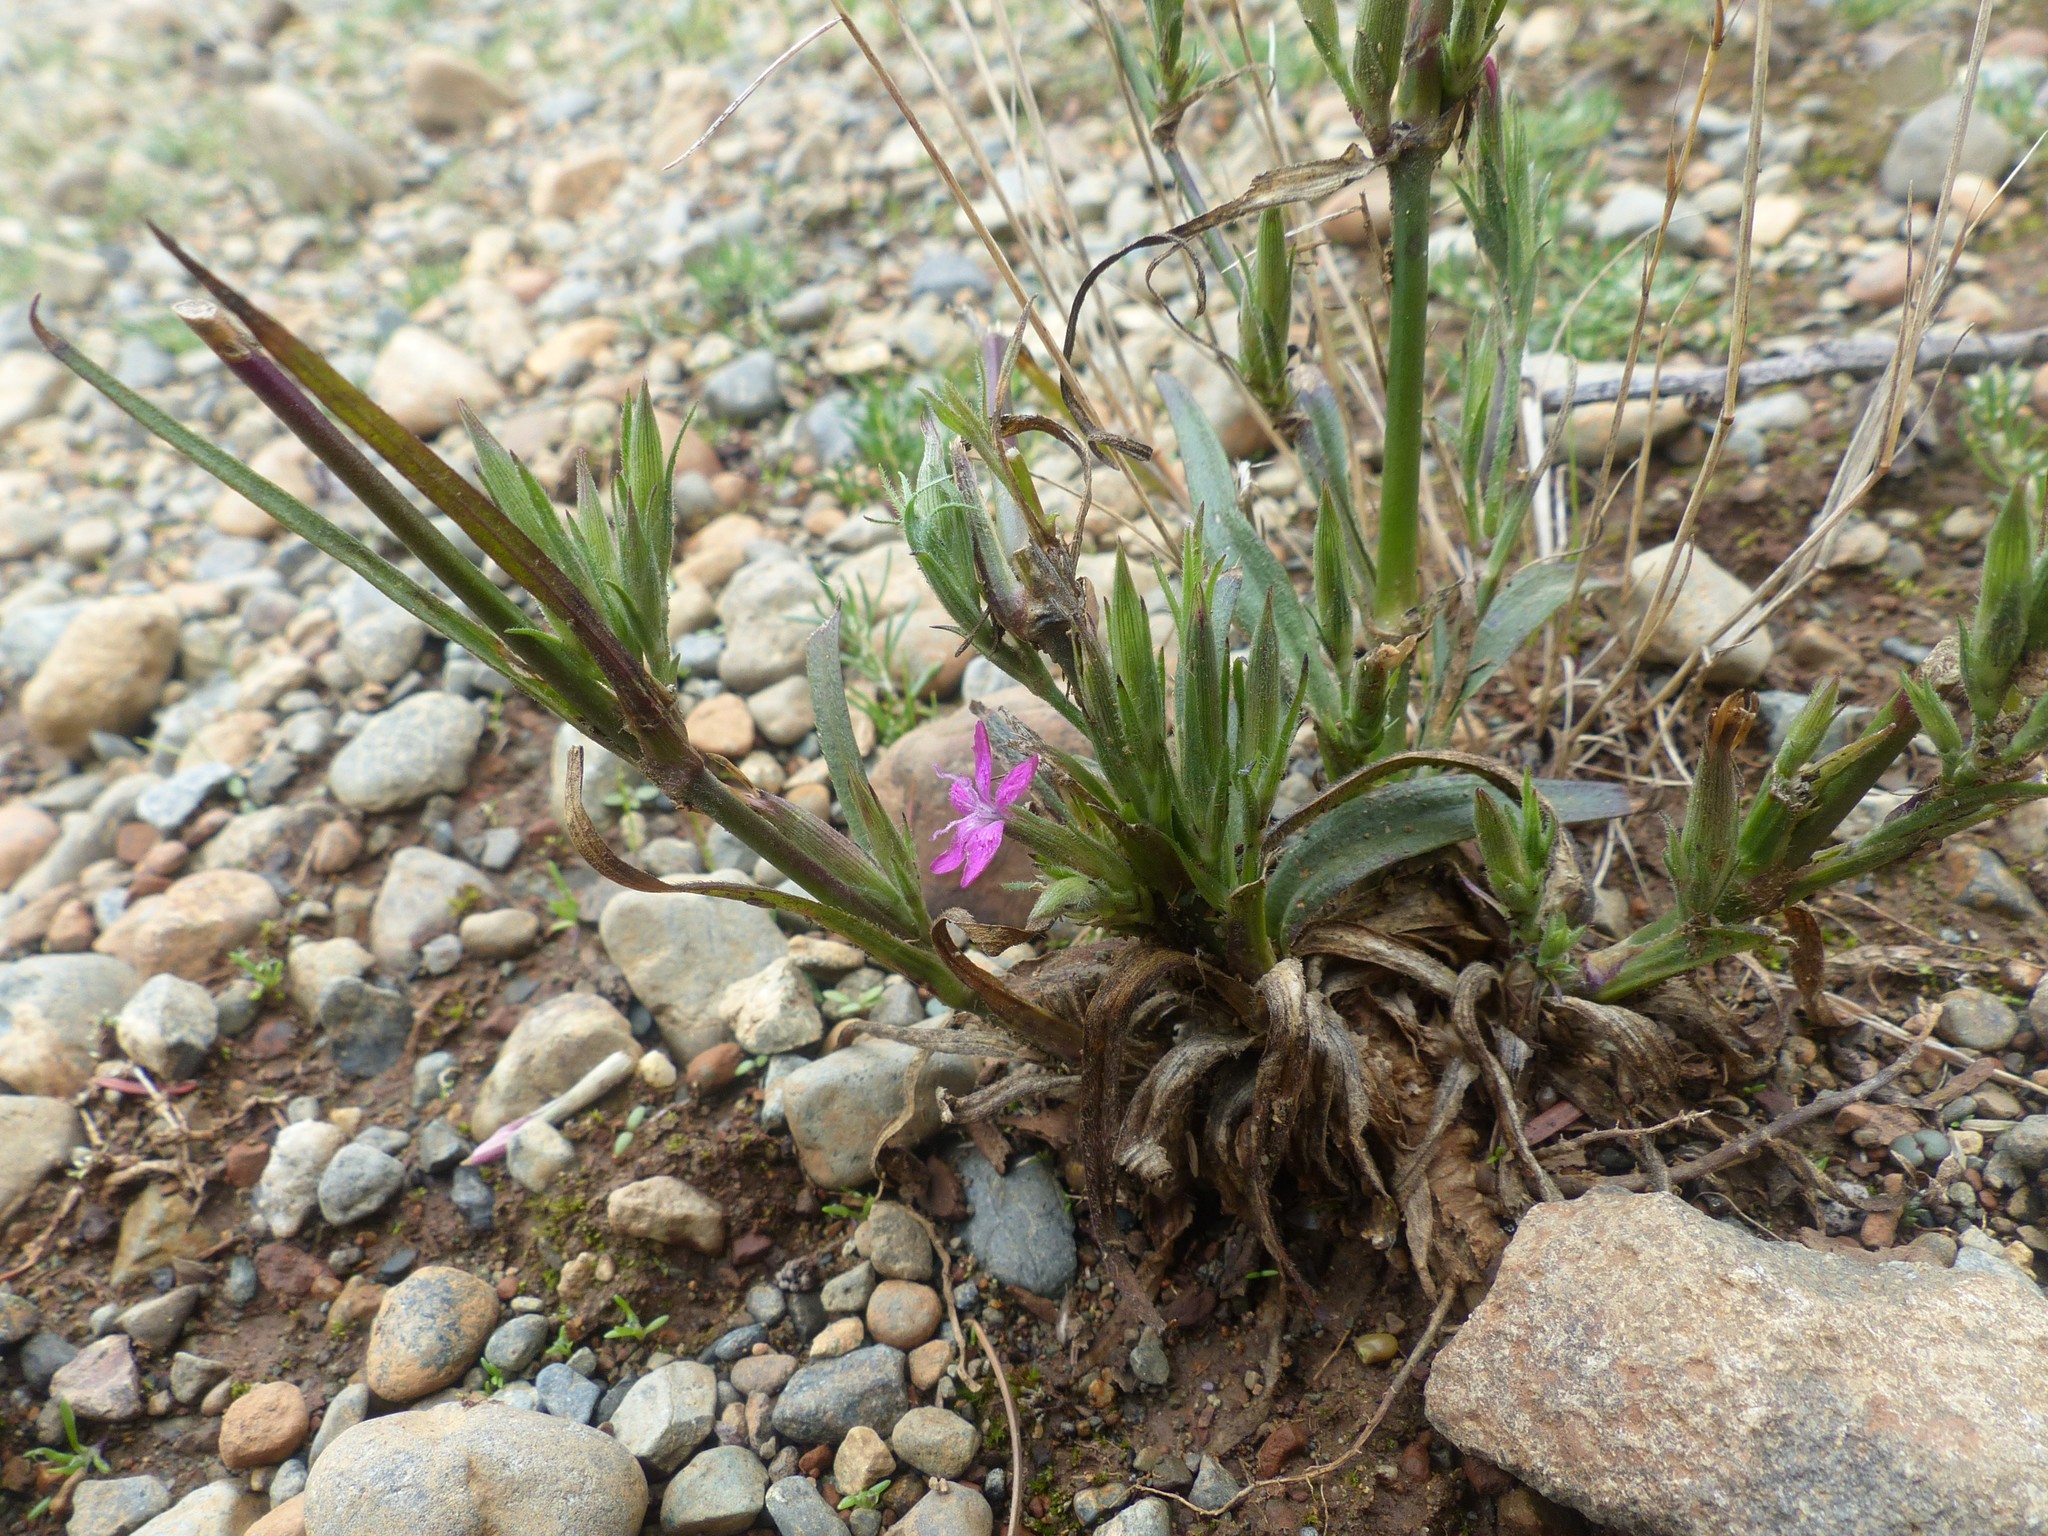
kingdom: Plantae
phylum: Tracheophyta
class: Magnoliopsida
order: Caryophyllales
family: Caryophyllaceae
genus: Dianthus
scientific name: Dianthus armeria
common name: Deptford pink
